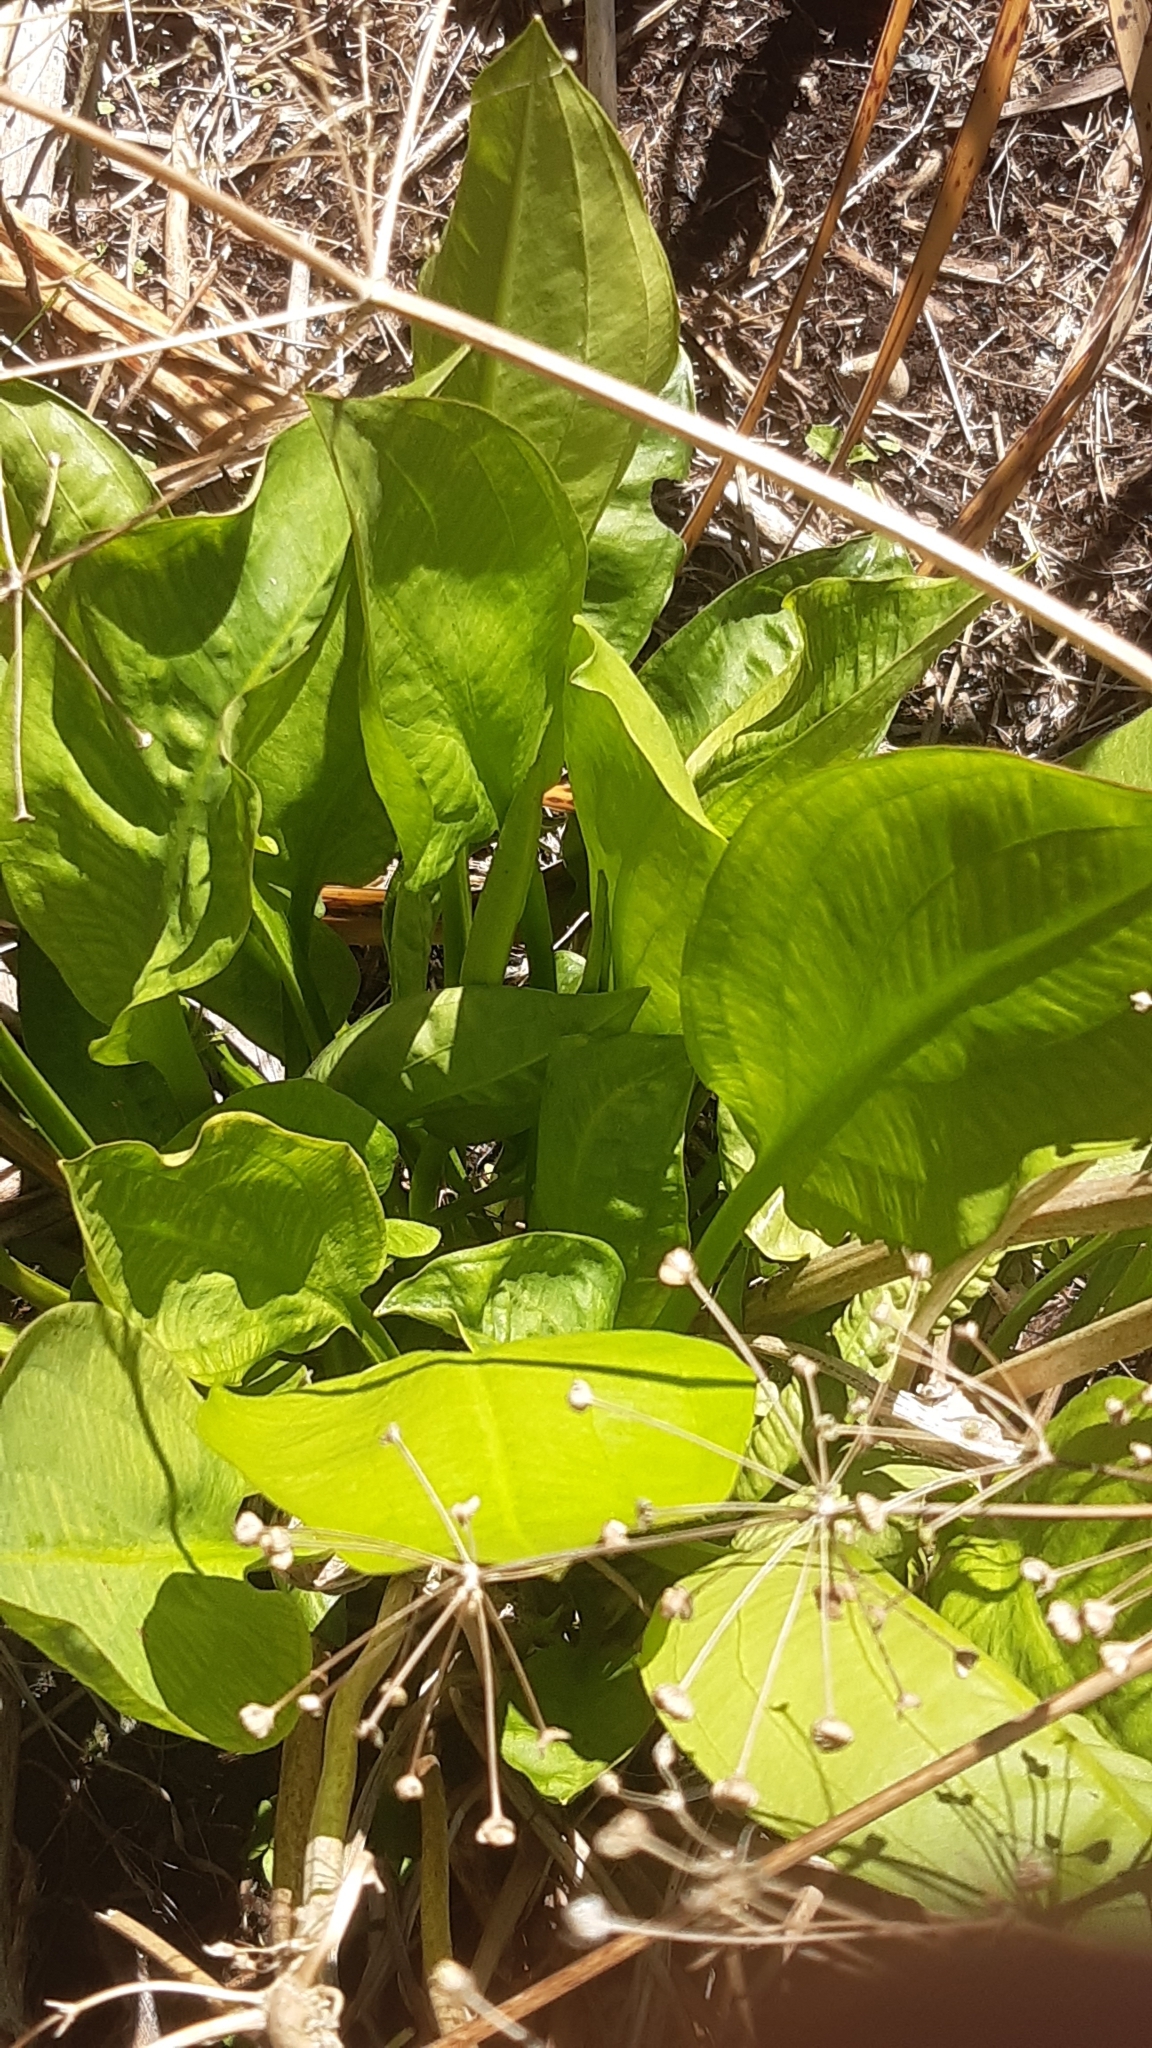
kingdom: Plantae
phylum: Tracheophyta
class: Liliopsida
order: Alismatales
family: Alismataceae
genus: Alisma
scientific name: Alisma plantago-aquatica
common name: Water-plantain
